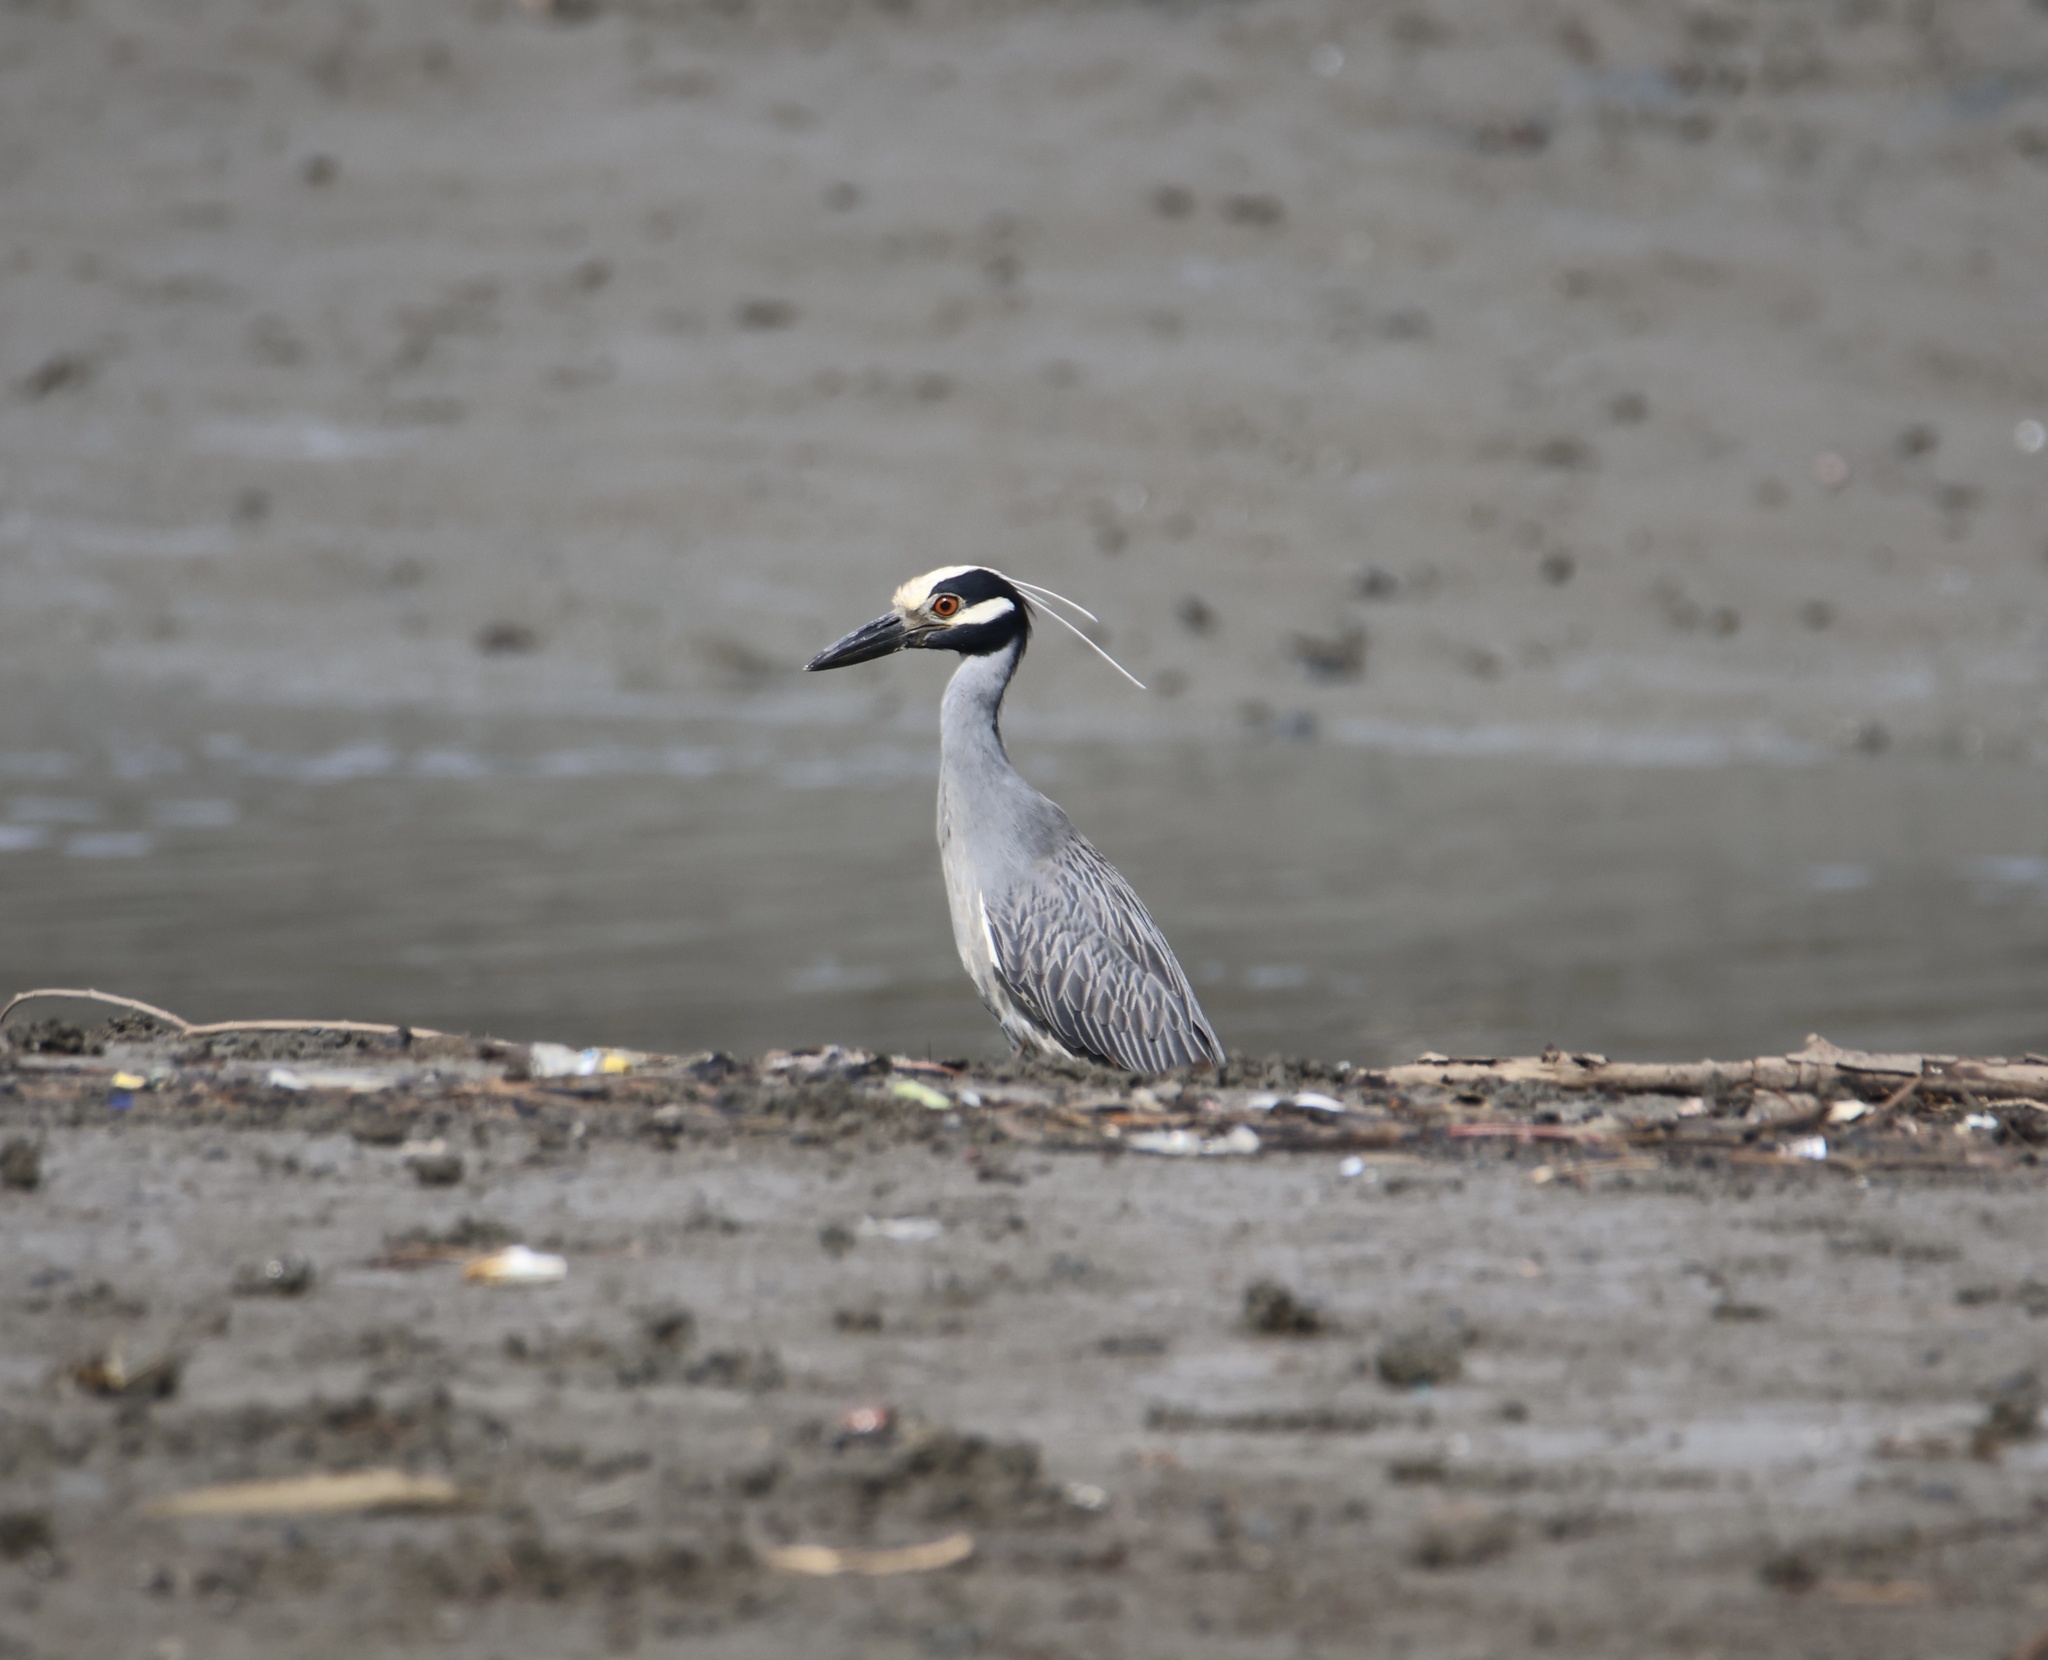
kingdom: Animalia
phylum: Chordata
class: Aves
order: Pelecaniformes
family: Ardeidae
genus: Nyctanassa
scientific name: Nyctanassa violacea
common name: Yellow-crowned night heron
